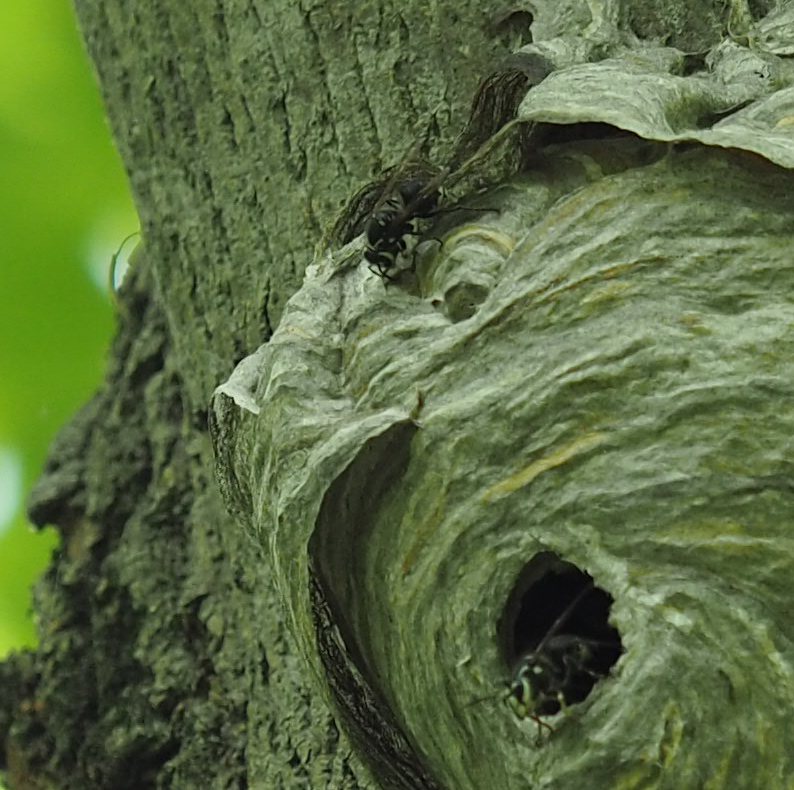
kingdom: Animalia
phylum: Arthropoda
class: Insecta
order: Hymenoptera
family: Vespidae
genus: Dolichovespula
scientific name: Dolichovespula maculata
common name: Bald-faced hornet
